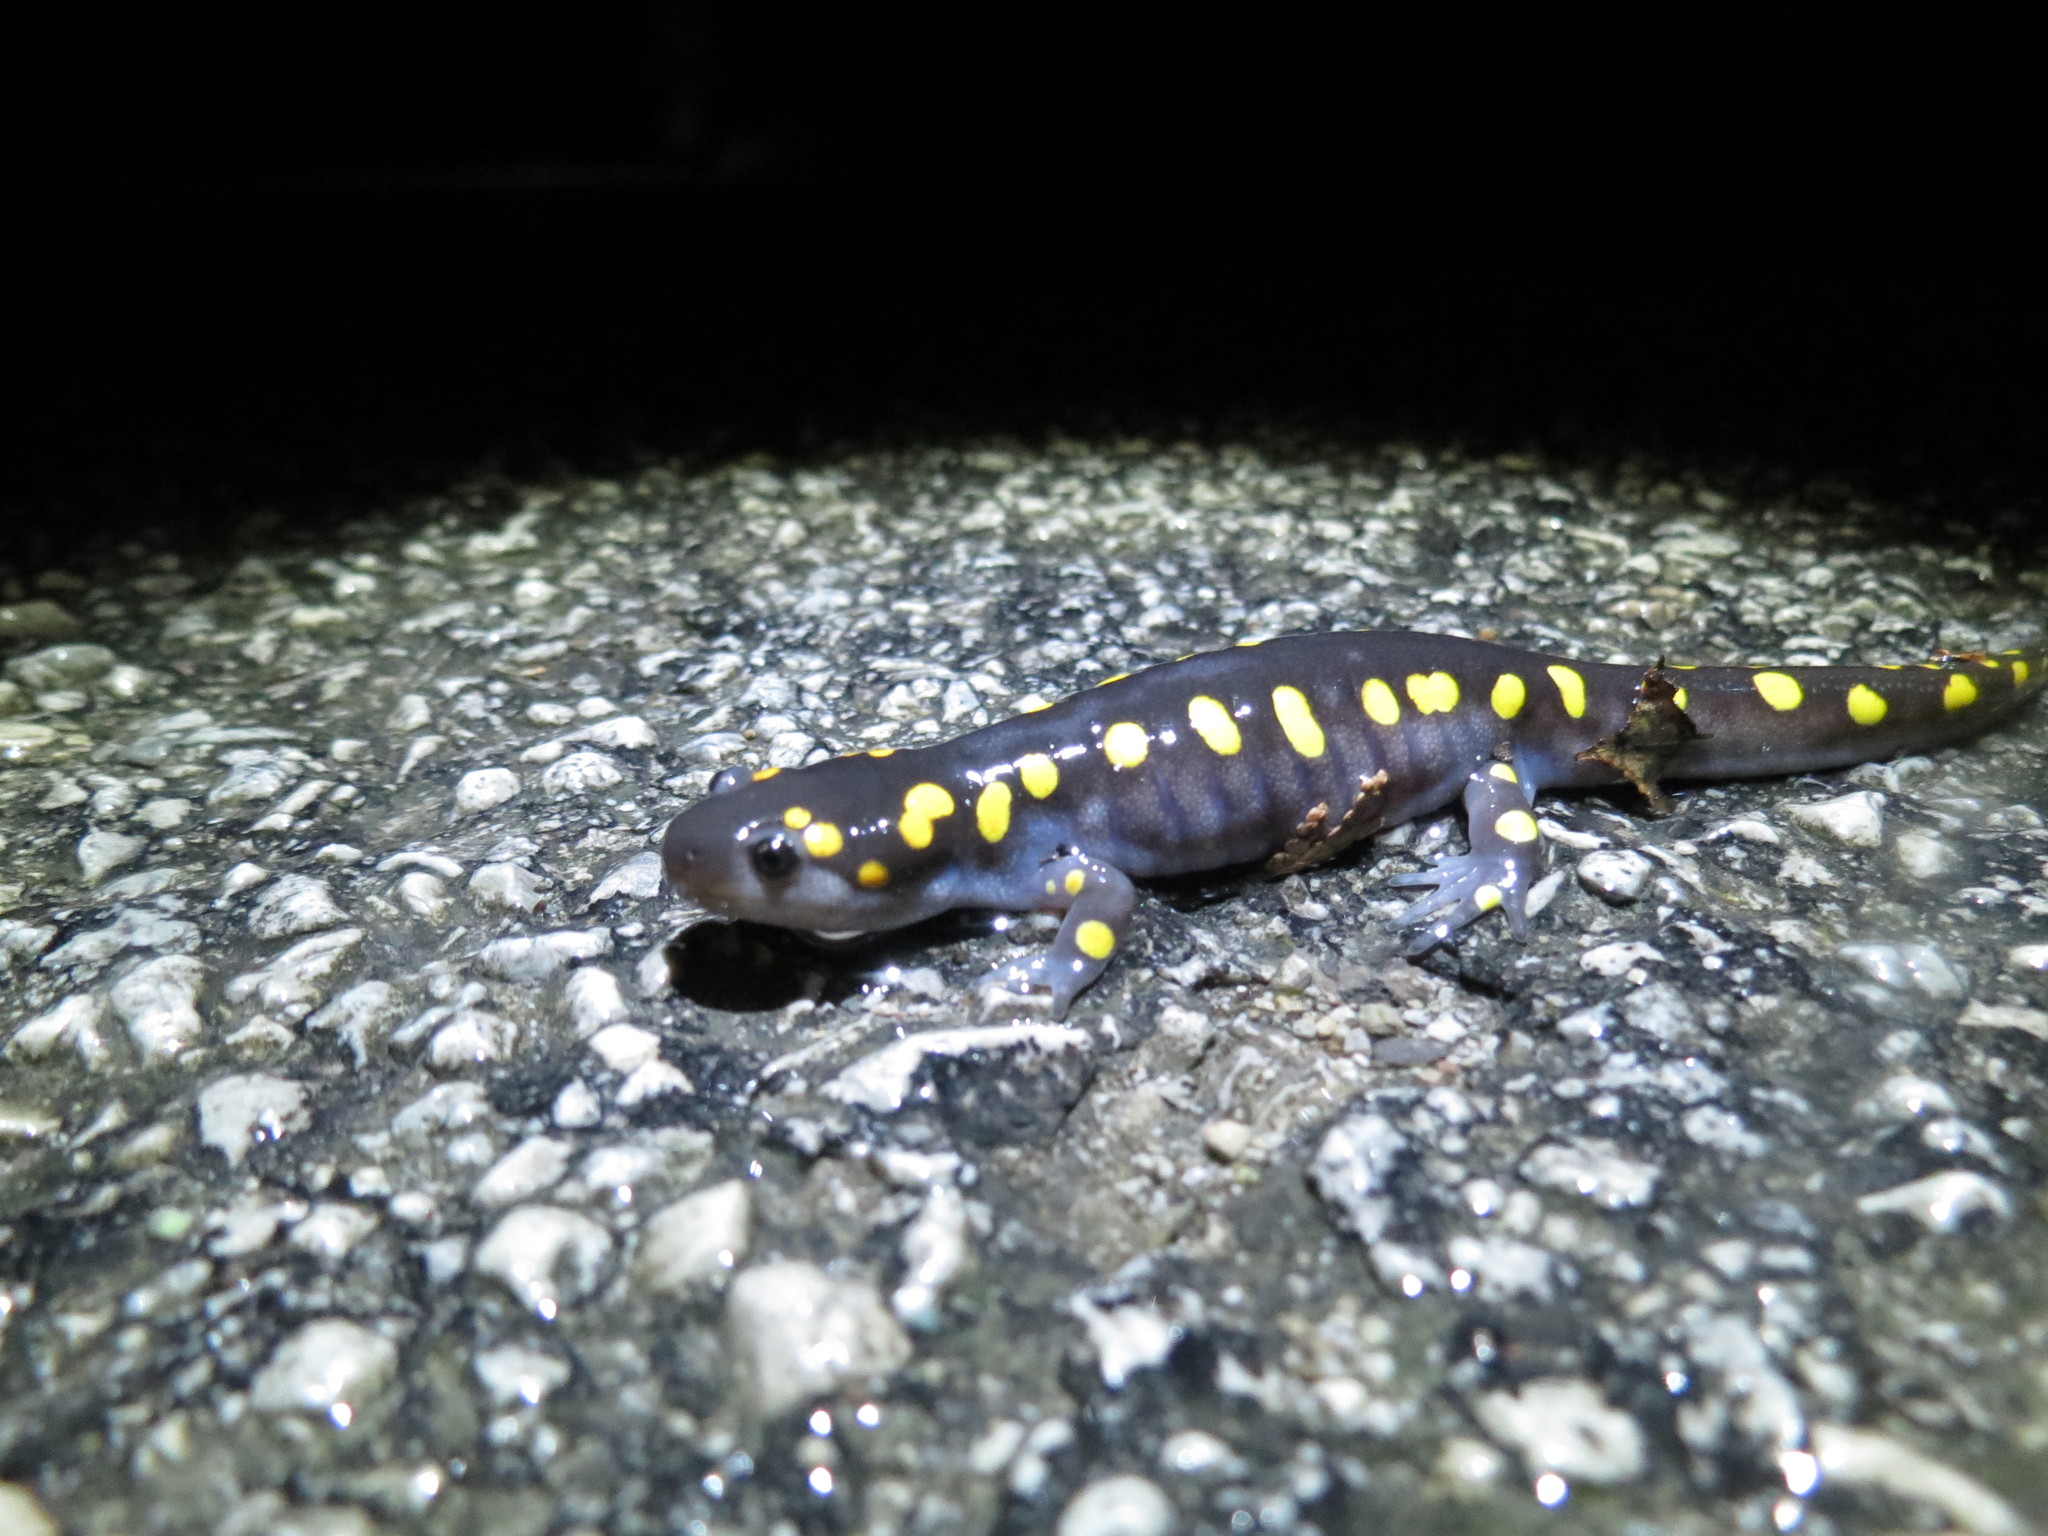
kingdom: Animalia
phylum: Chordata
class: Amphibia
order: Caudata
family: Ambystomatidae
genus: Ambystoma
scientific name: Ambystoma maculatum
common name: Spotted salamander
